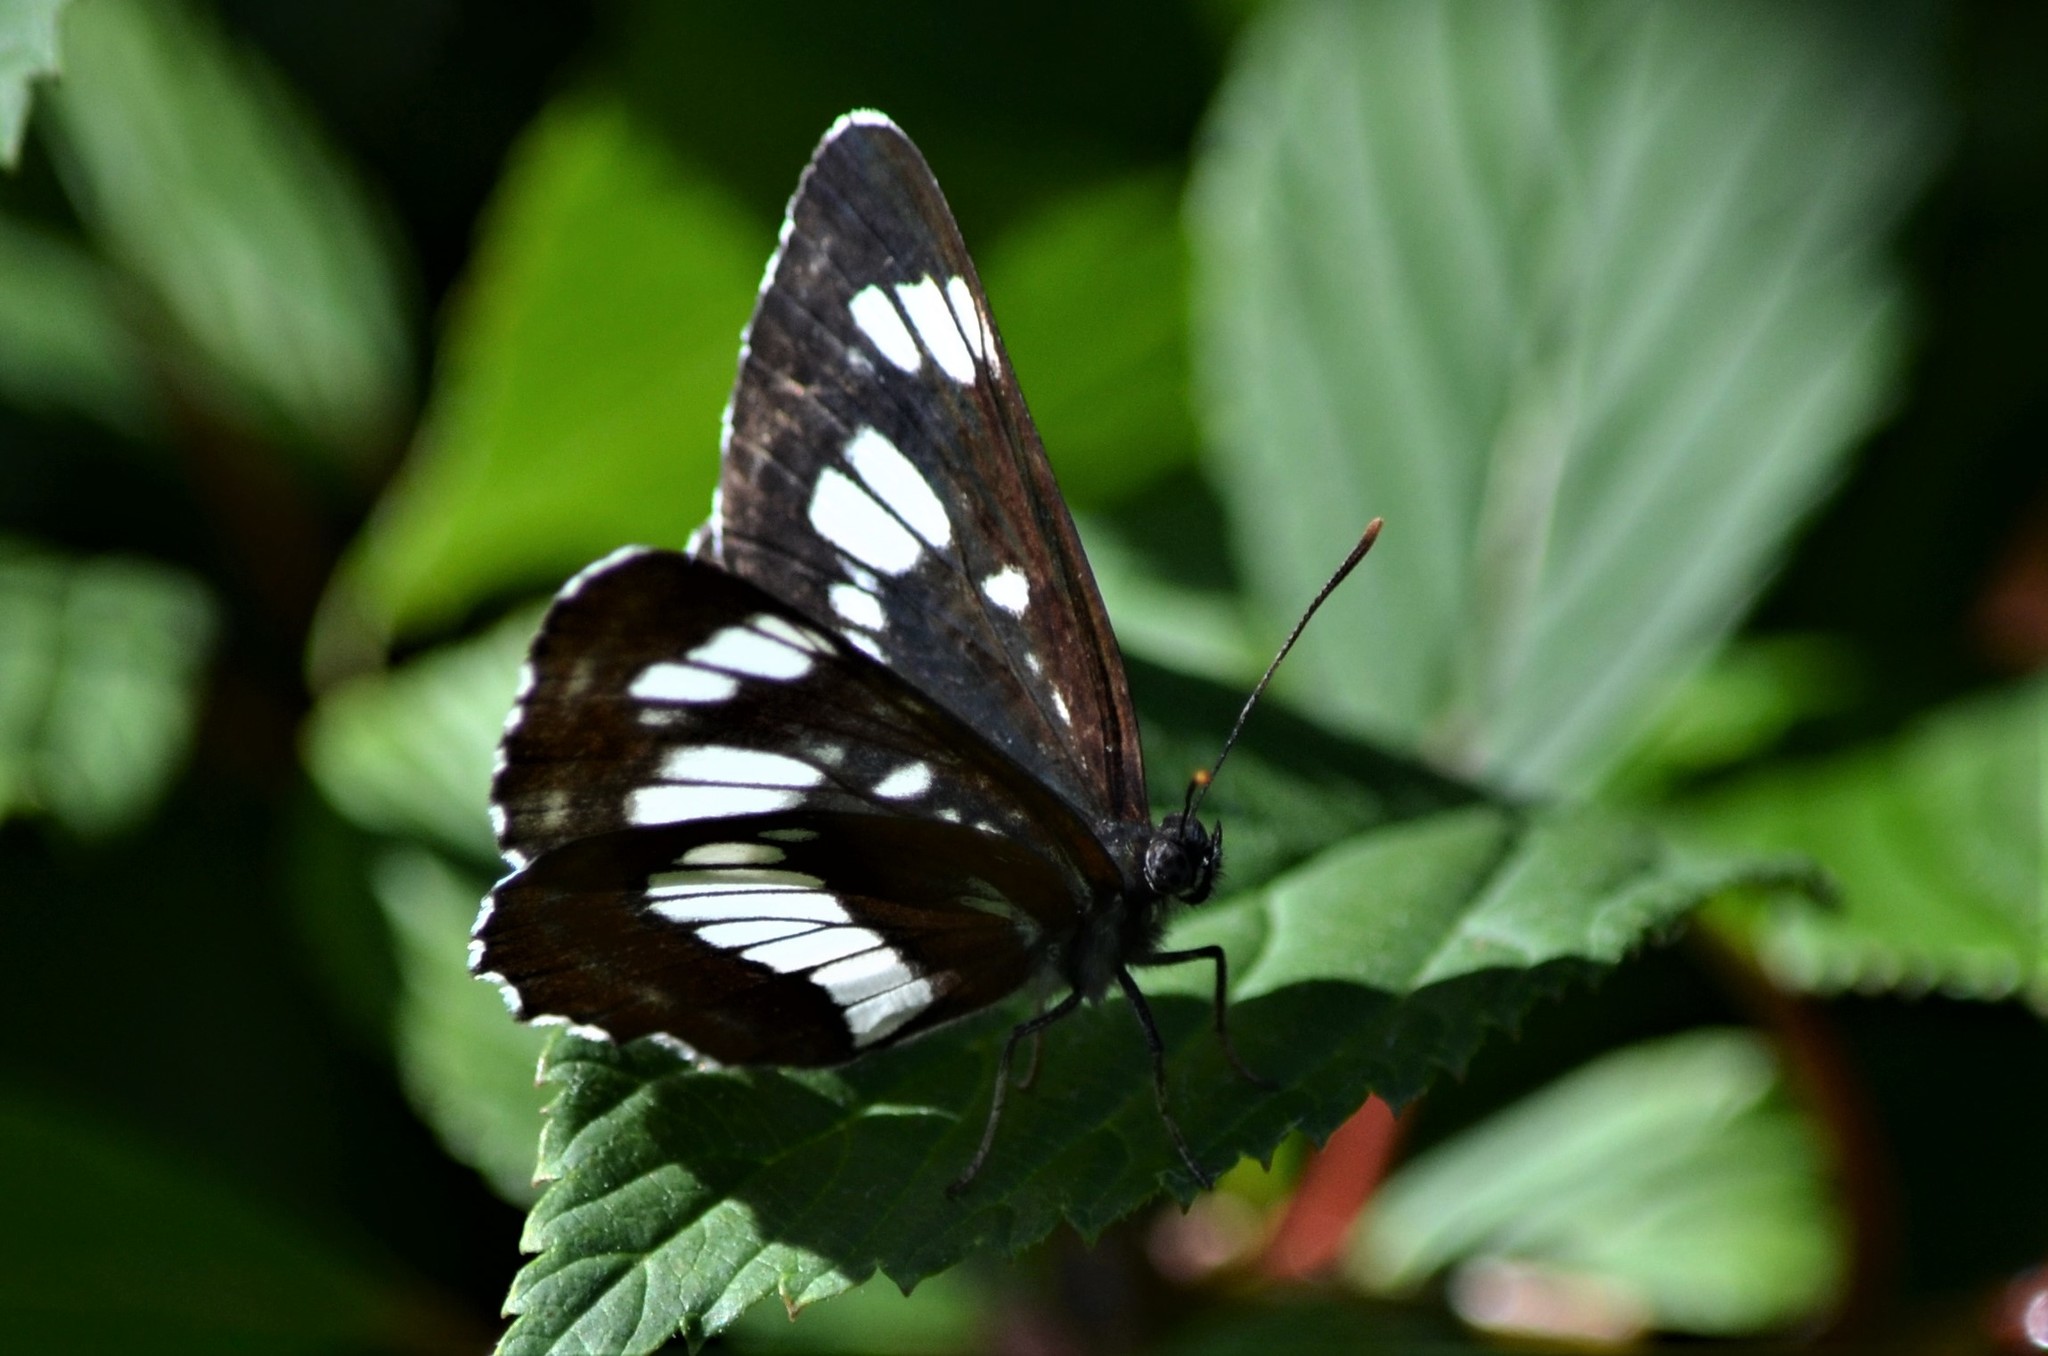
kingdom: Animalia
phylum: Arthropoda
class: Insecta
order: Lepidoptera
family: Nymphalidae
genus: Neptis
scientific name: Neptis rivularis
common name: Hungarian glider
